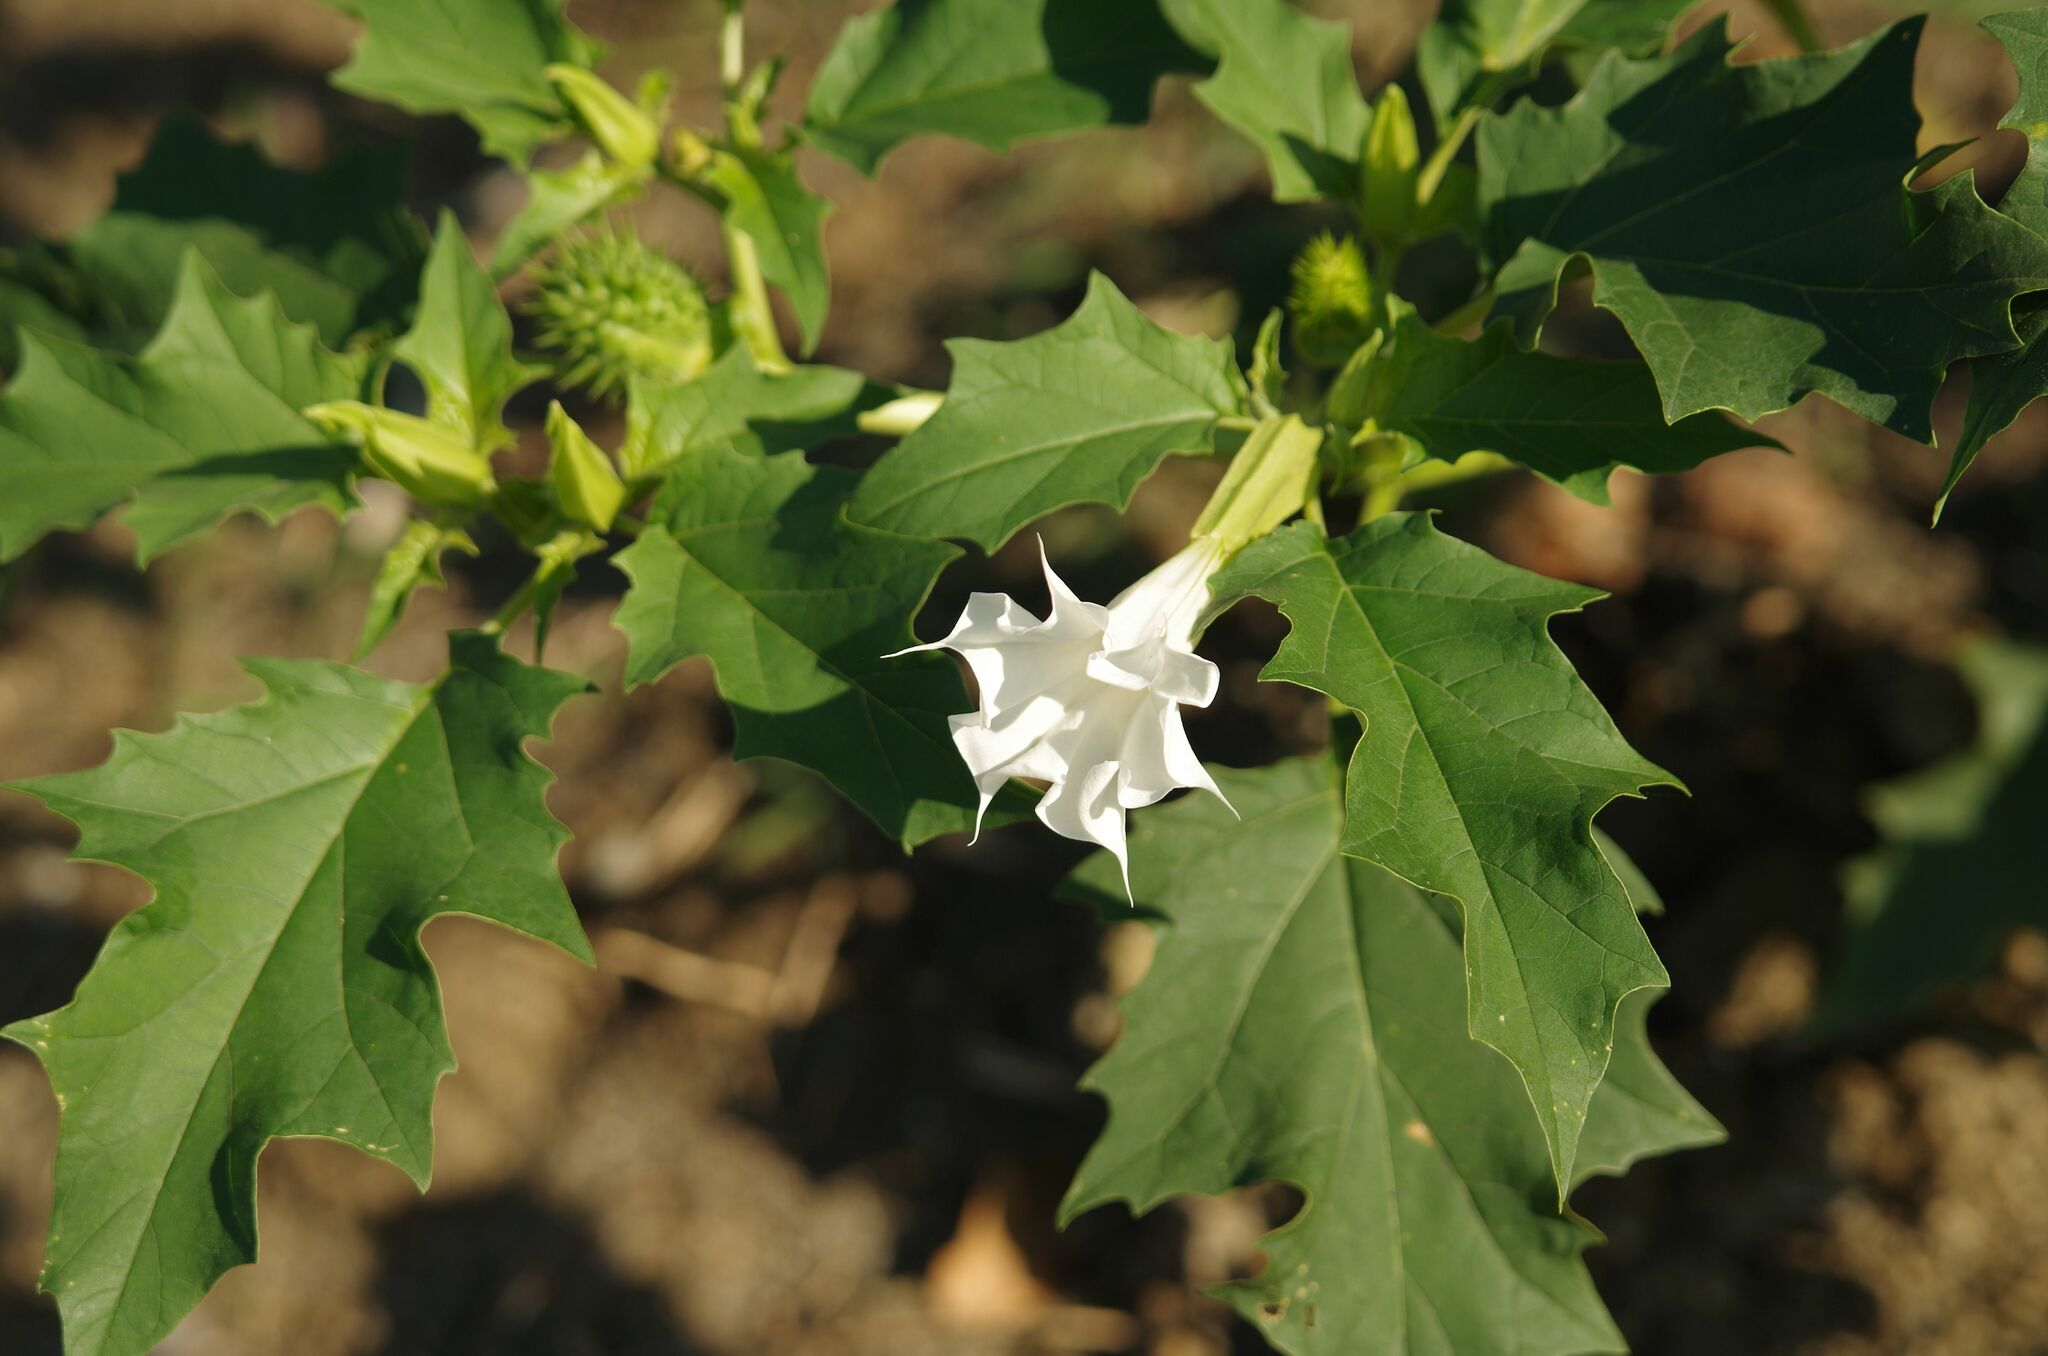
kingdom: Plantae
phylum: Tracheophyta
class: Magnoliopsida
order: Solanales
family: Solanaceae
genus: Datura
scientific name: Datura stramonium
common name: Thorn-apple
